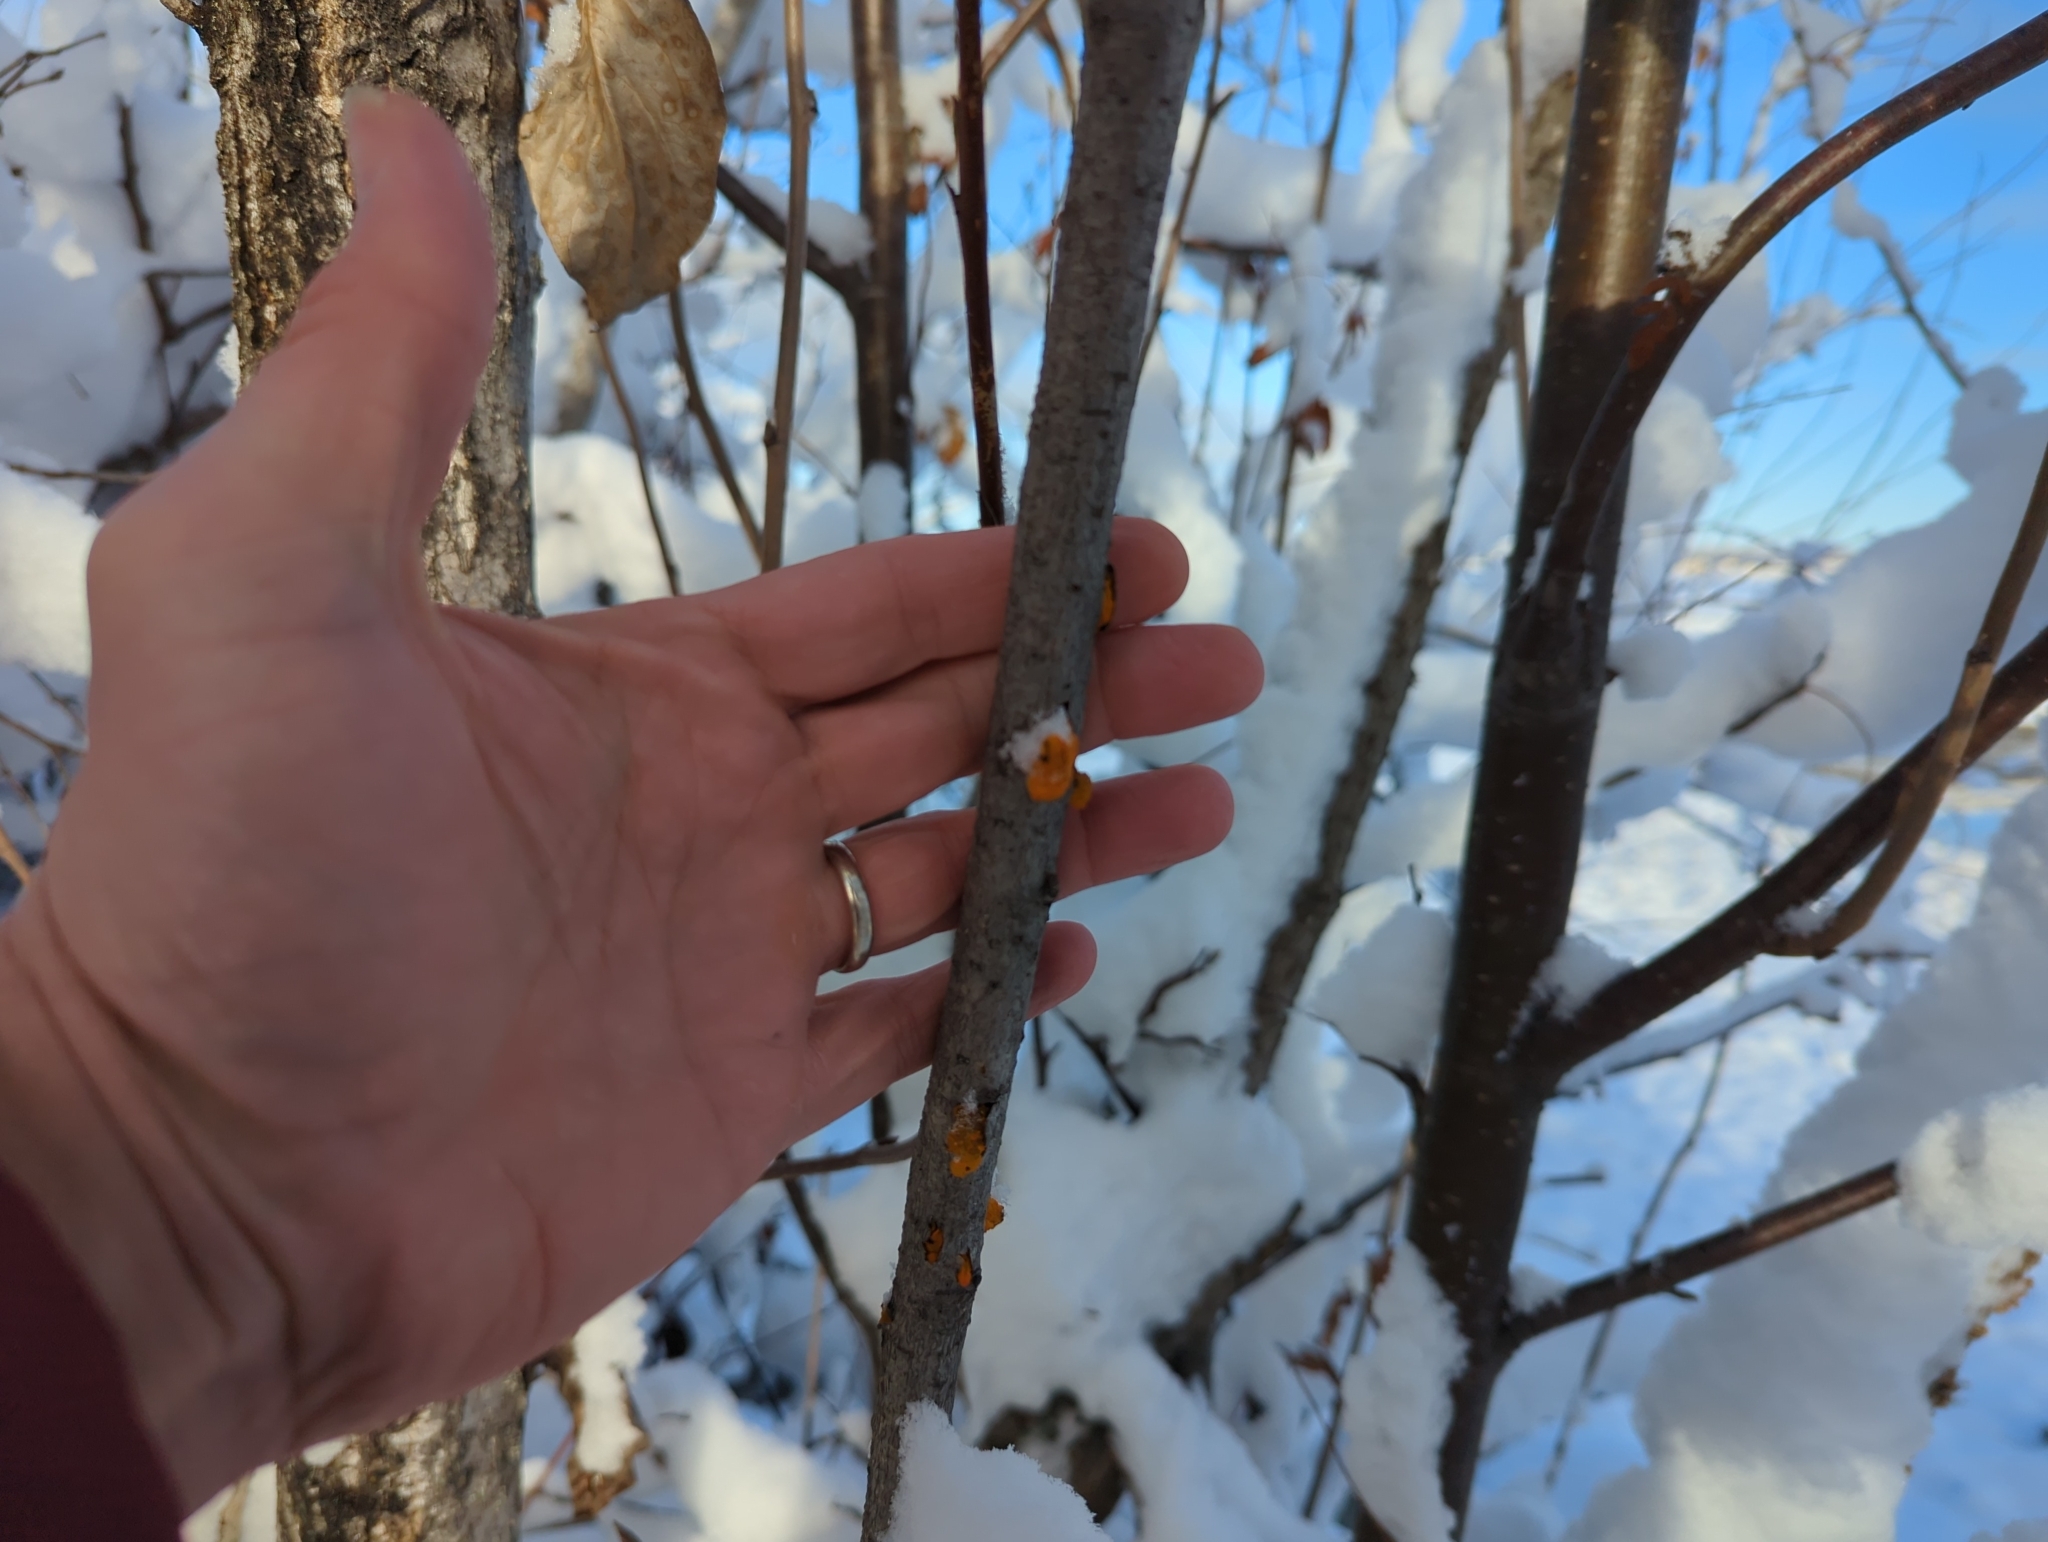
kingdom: Fungi
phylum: Basidiomycota
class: Tremellomycetes
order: Tremellales
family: Tremellaceae
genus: Tremella
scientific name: Tremella mesenterica
